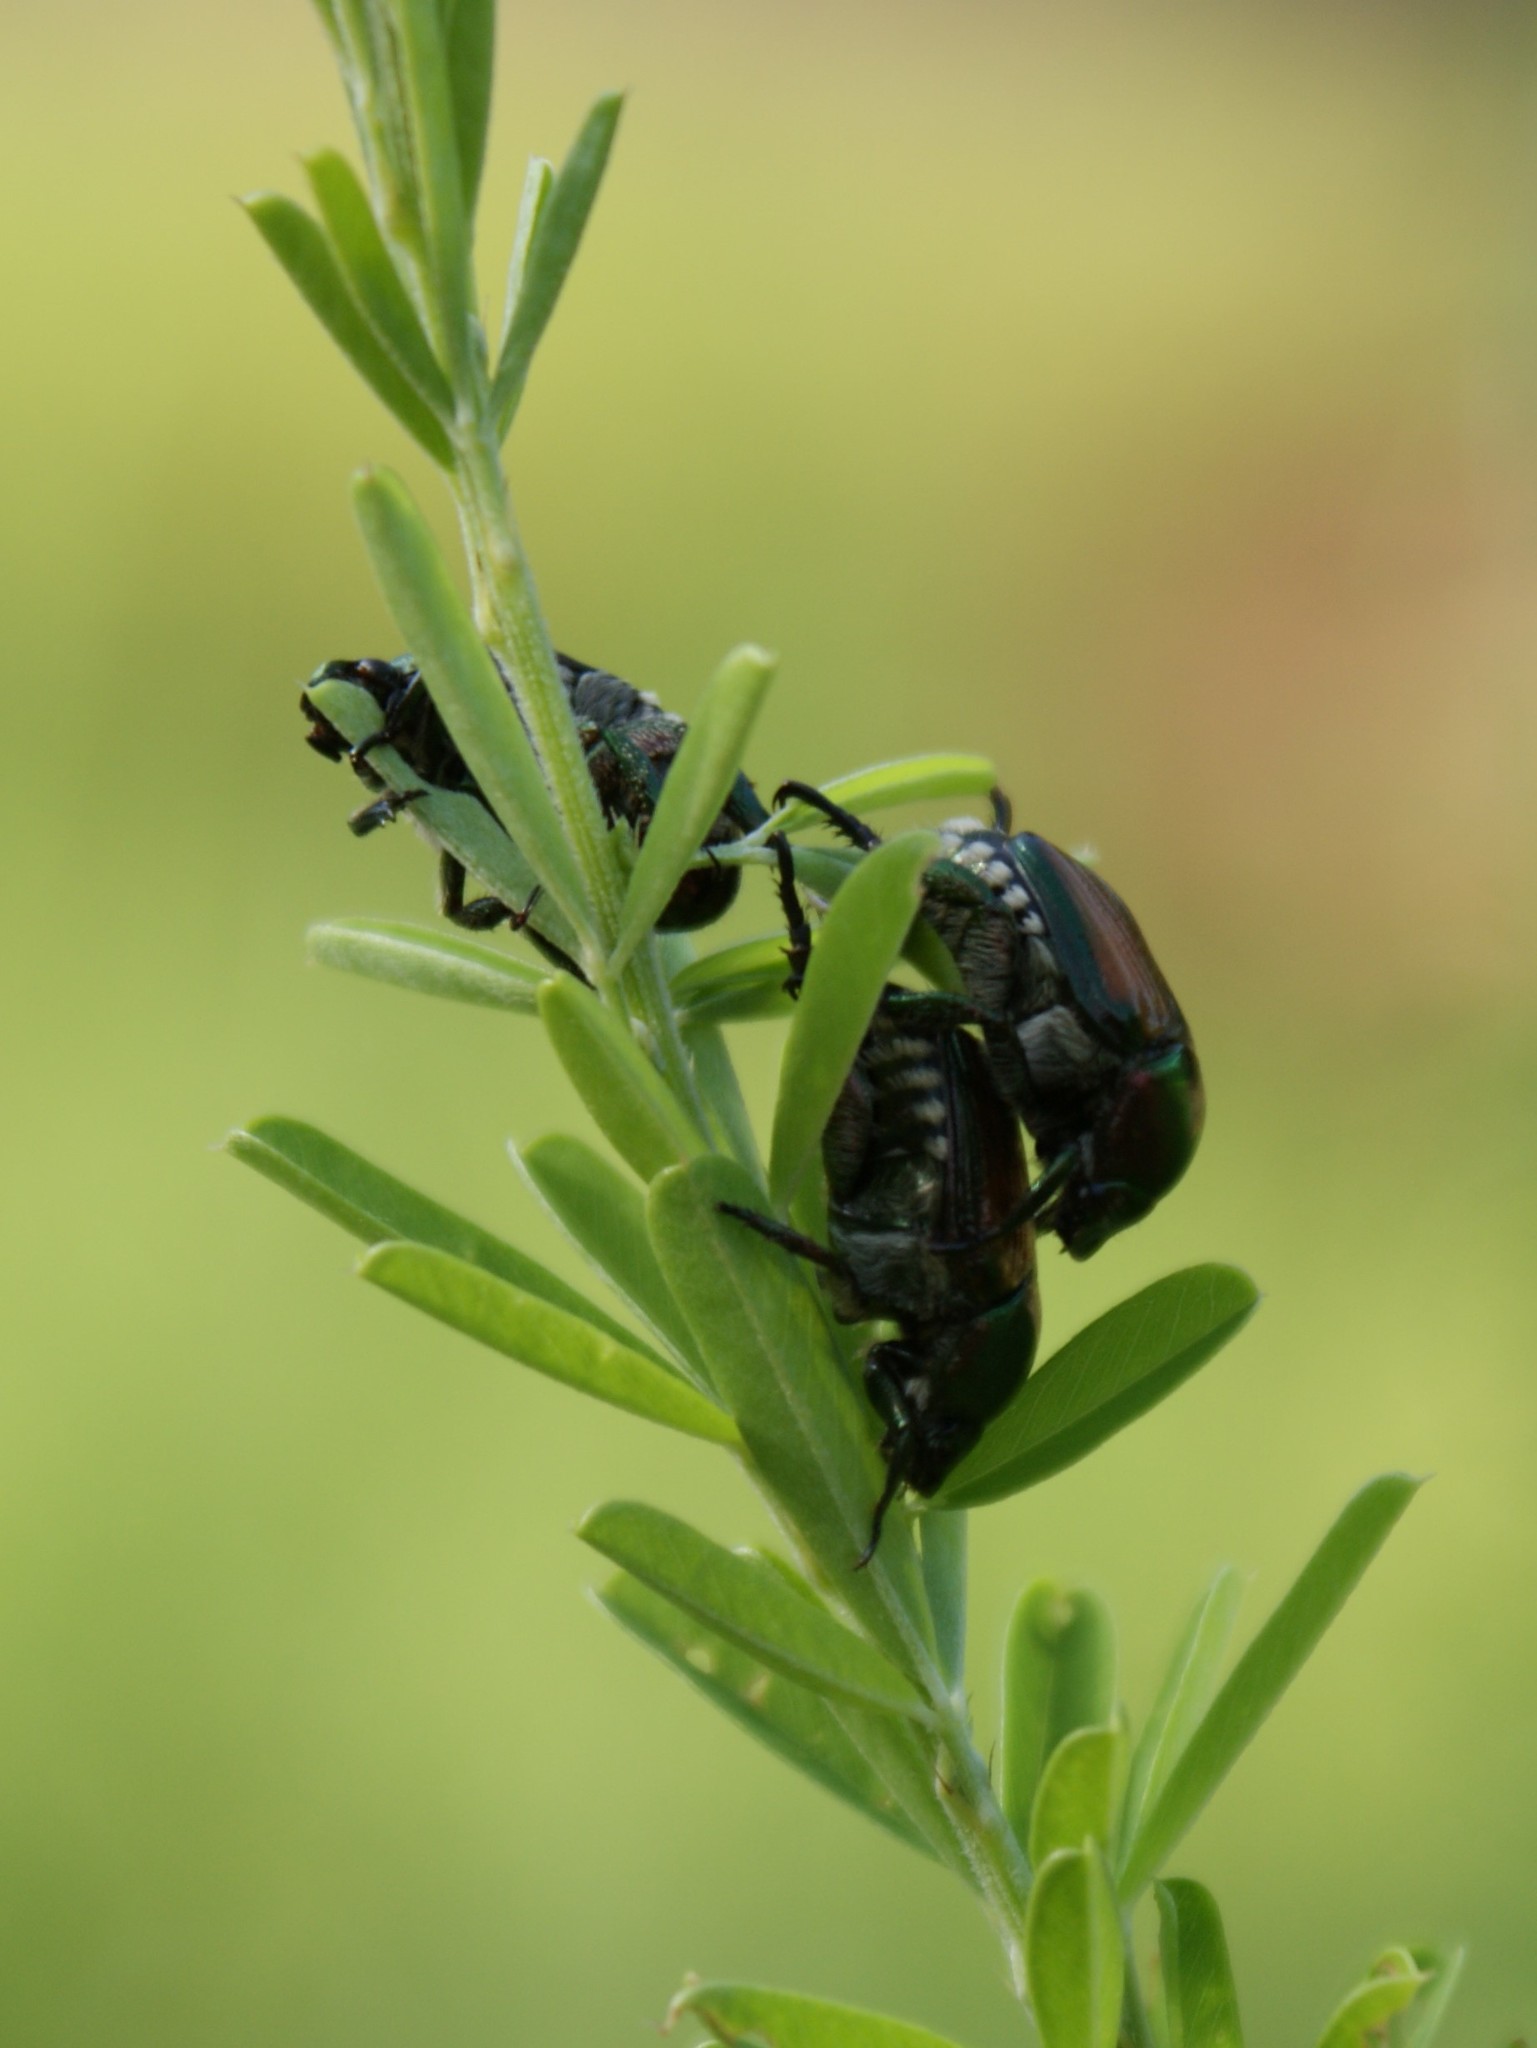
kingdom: Animalia
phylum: Arthropoda
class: Insecta
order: Coleoptera
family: Scarabaeidae
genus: Popillia
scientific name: Popillia japonica
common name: Japanese beetle
